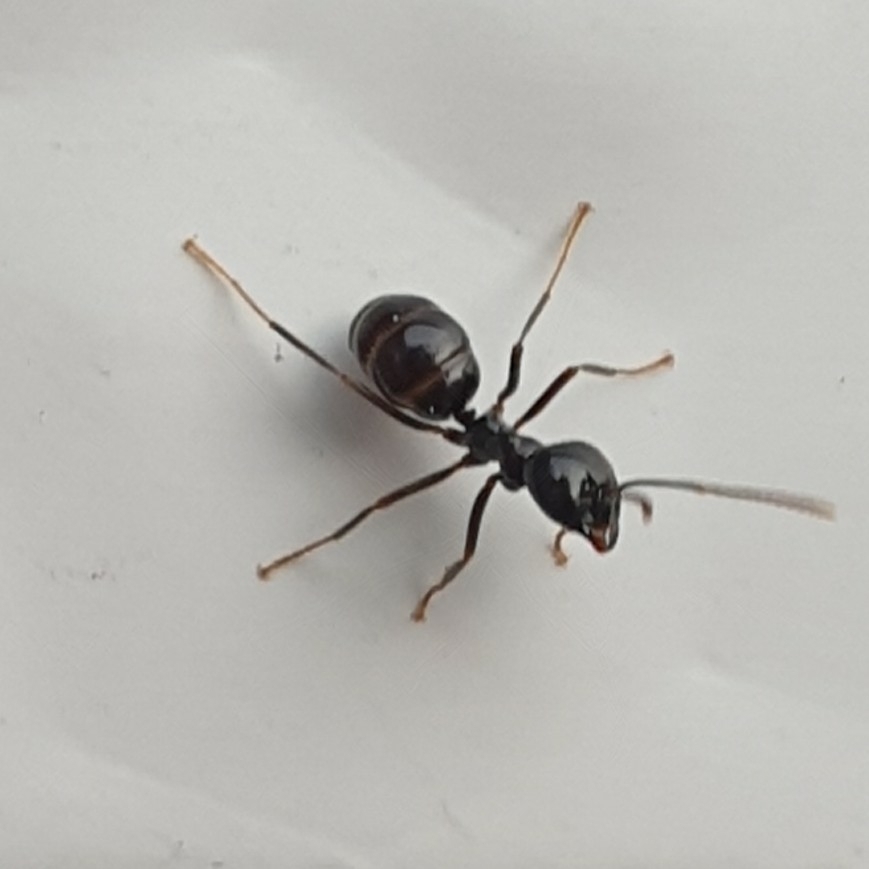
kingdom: Animalia
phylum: Arthropoda
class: Insecta
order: Hymenoptera
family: Formicidae
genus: Lasius
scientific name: Lasius fuliginosus
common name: Jet ant
